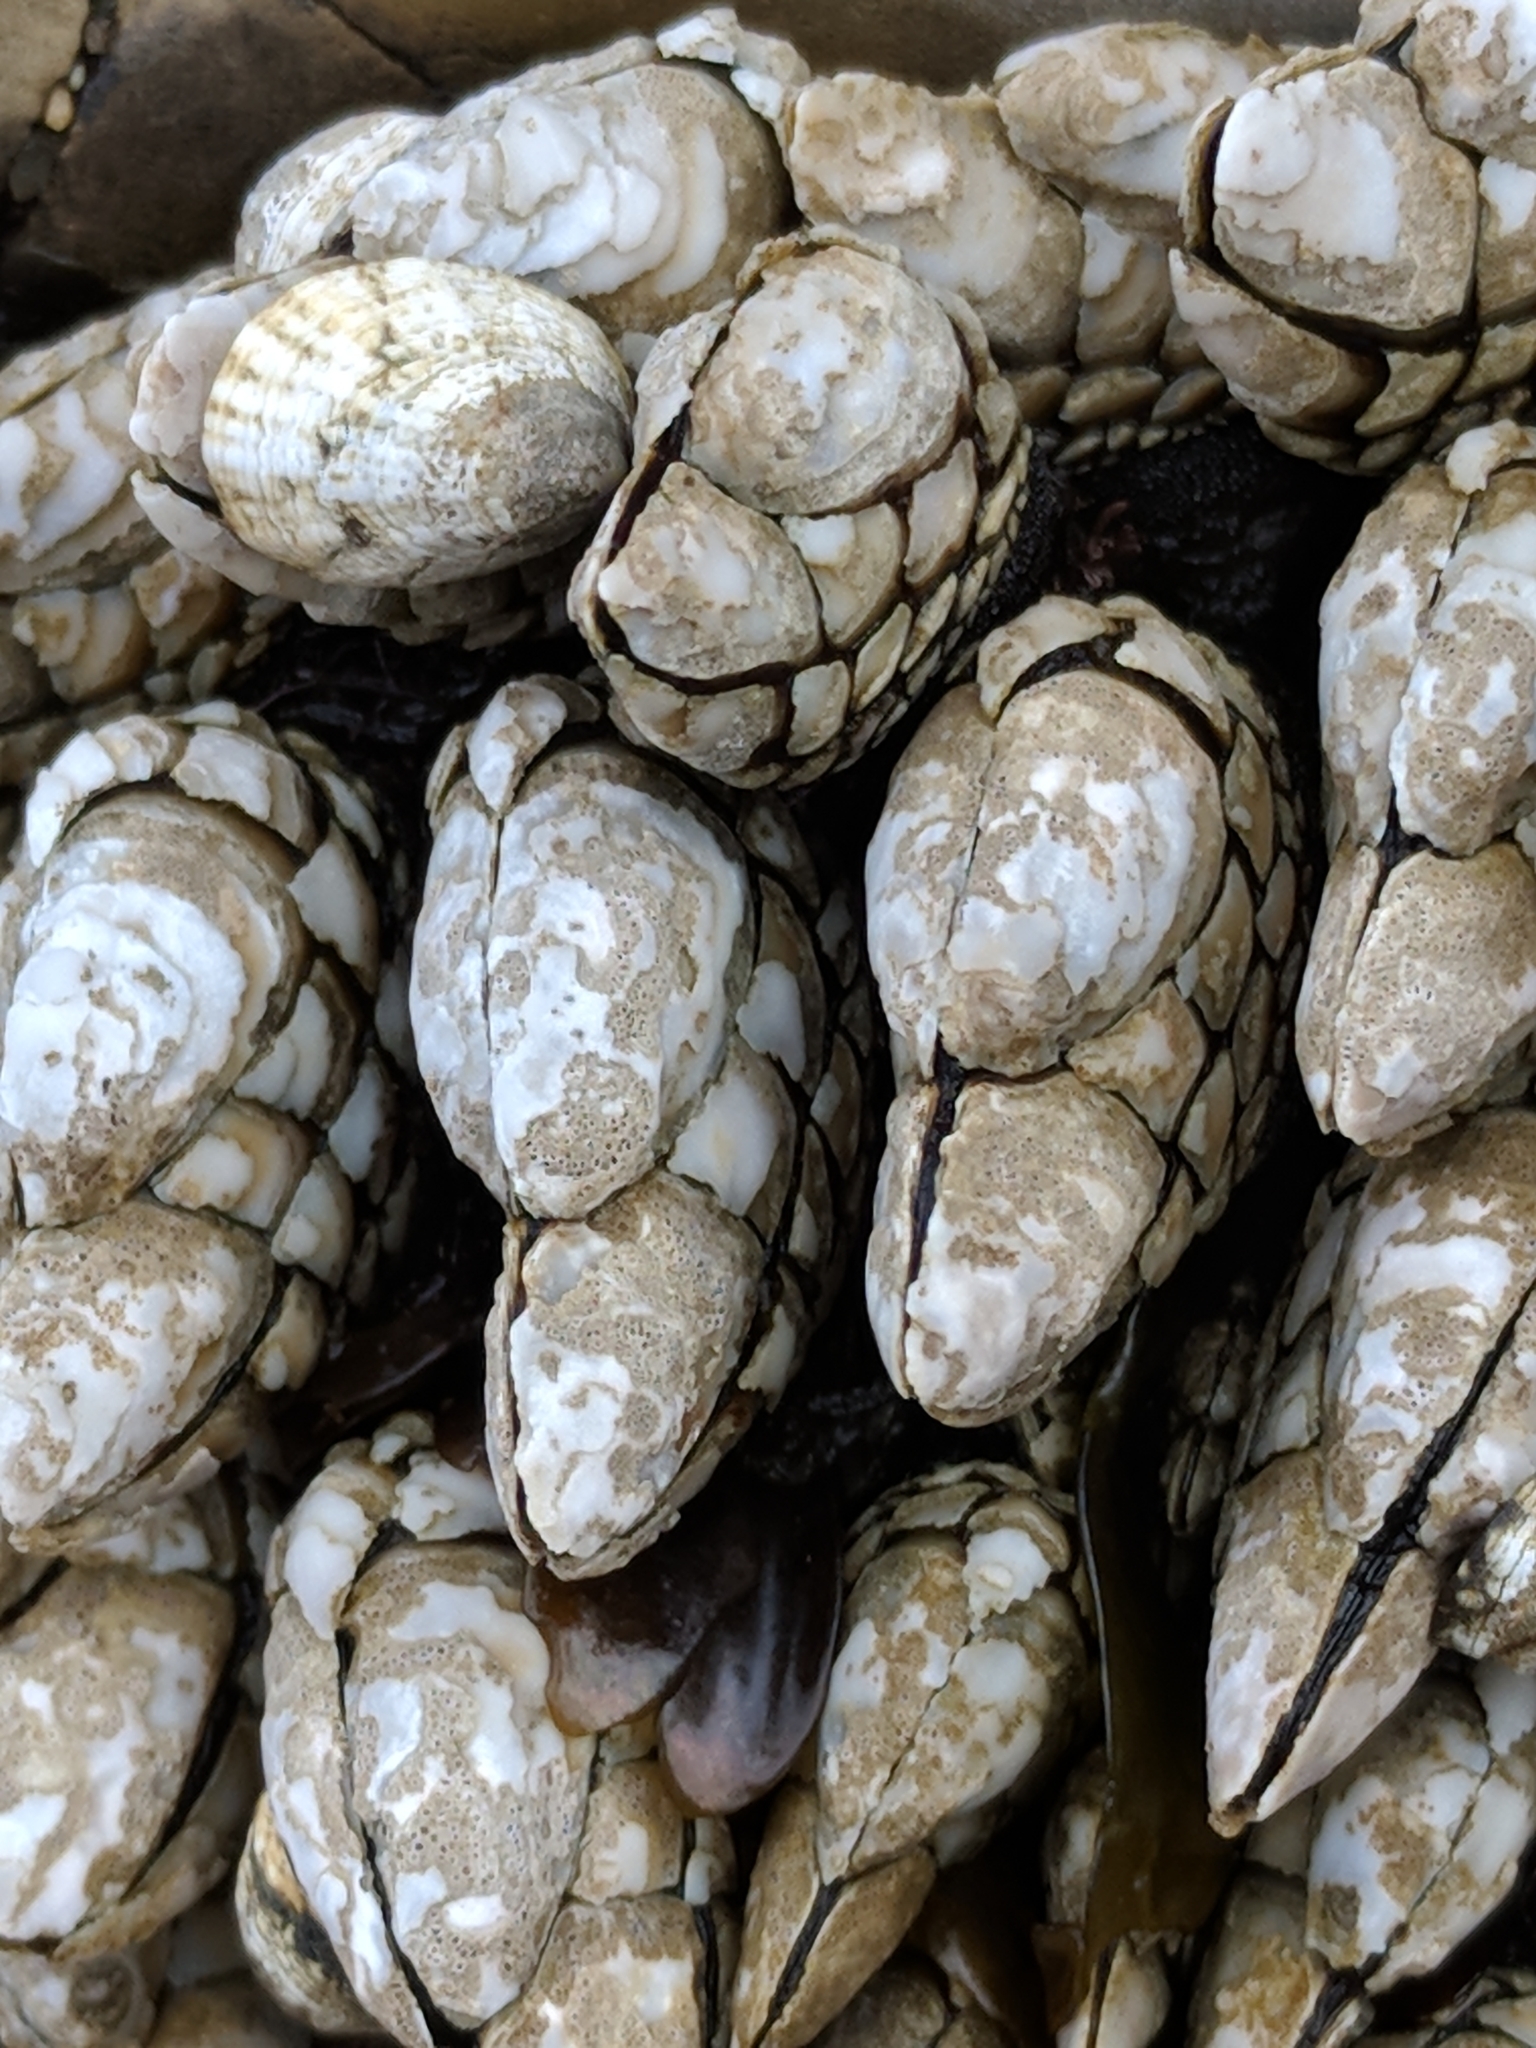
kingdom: Animalia
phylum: Arthropoda
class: Maxillopoda
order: Pedunculata
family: Pollicipedidae
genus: Pollicipes
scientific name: Pollicipes polymerus
